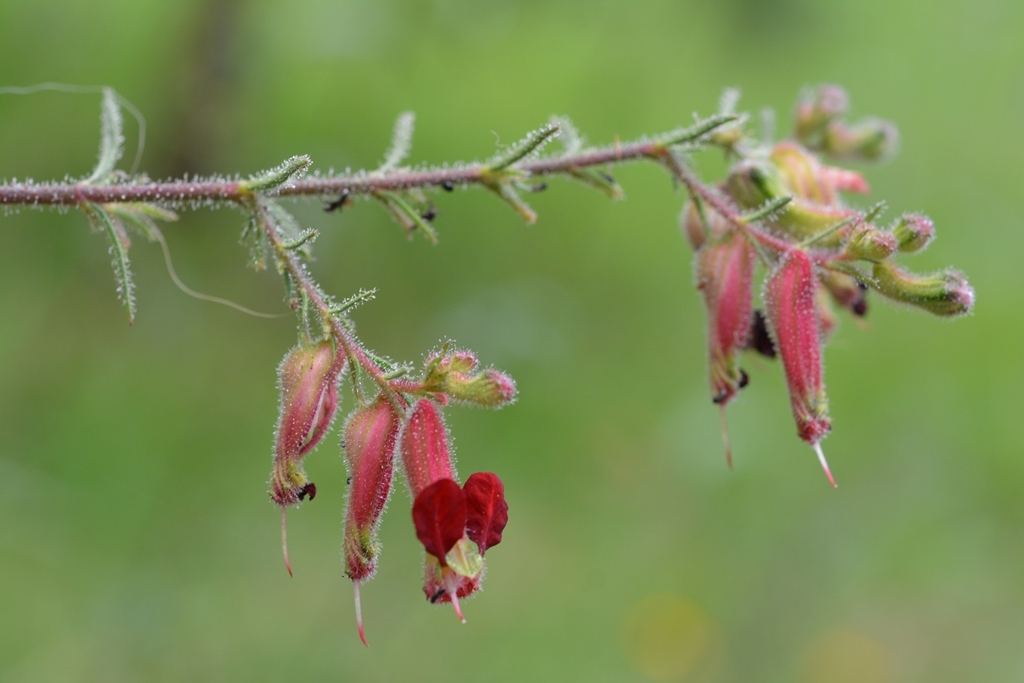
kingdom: Plantae
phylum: Tracheophyta
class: Magnoliopsida
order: Myrtales
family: Lythraceae
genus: Cuphea
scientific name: Cuphea hookeriana
